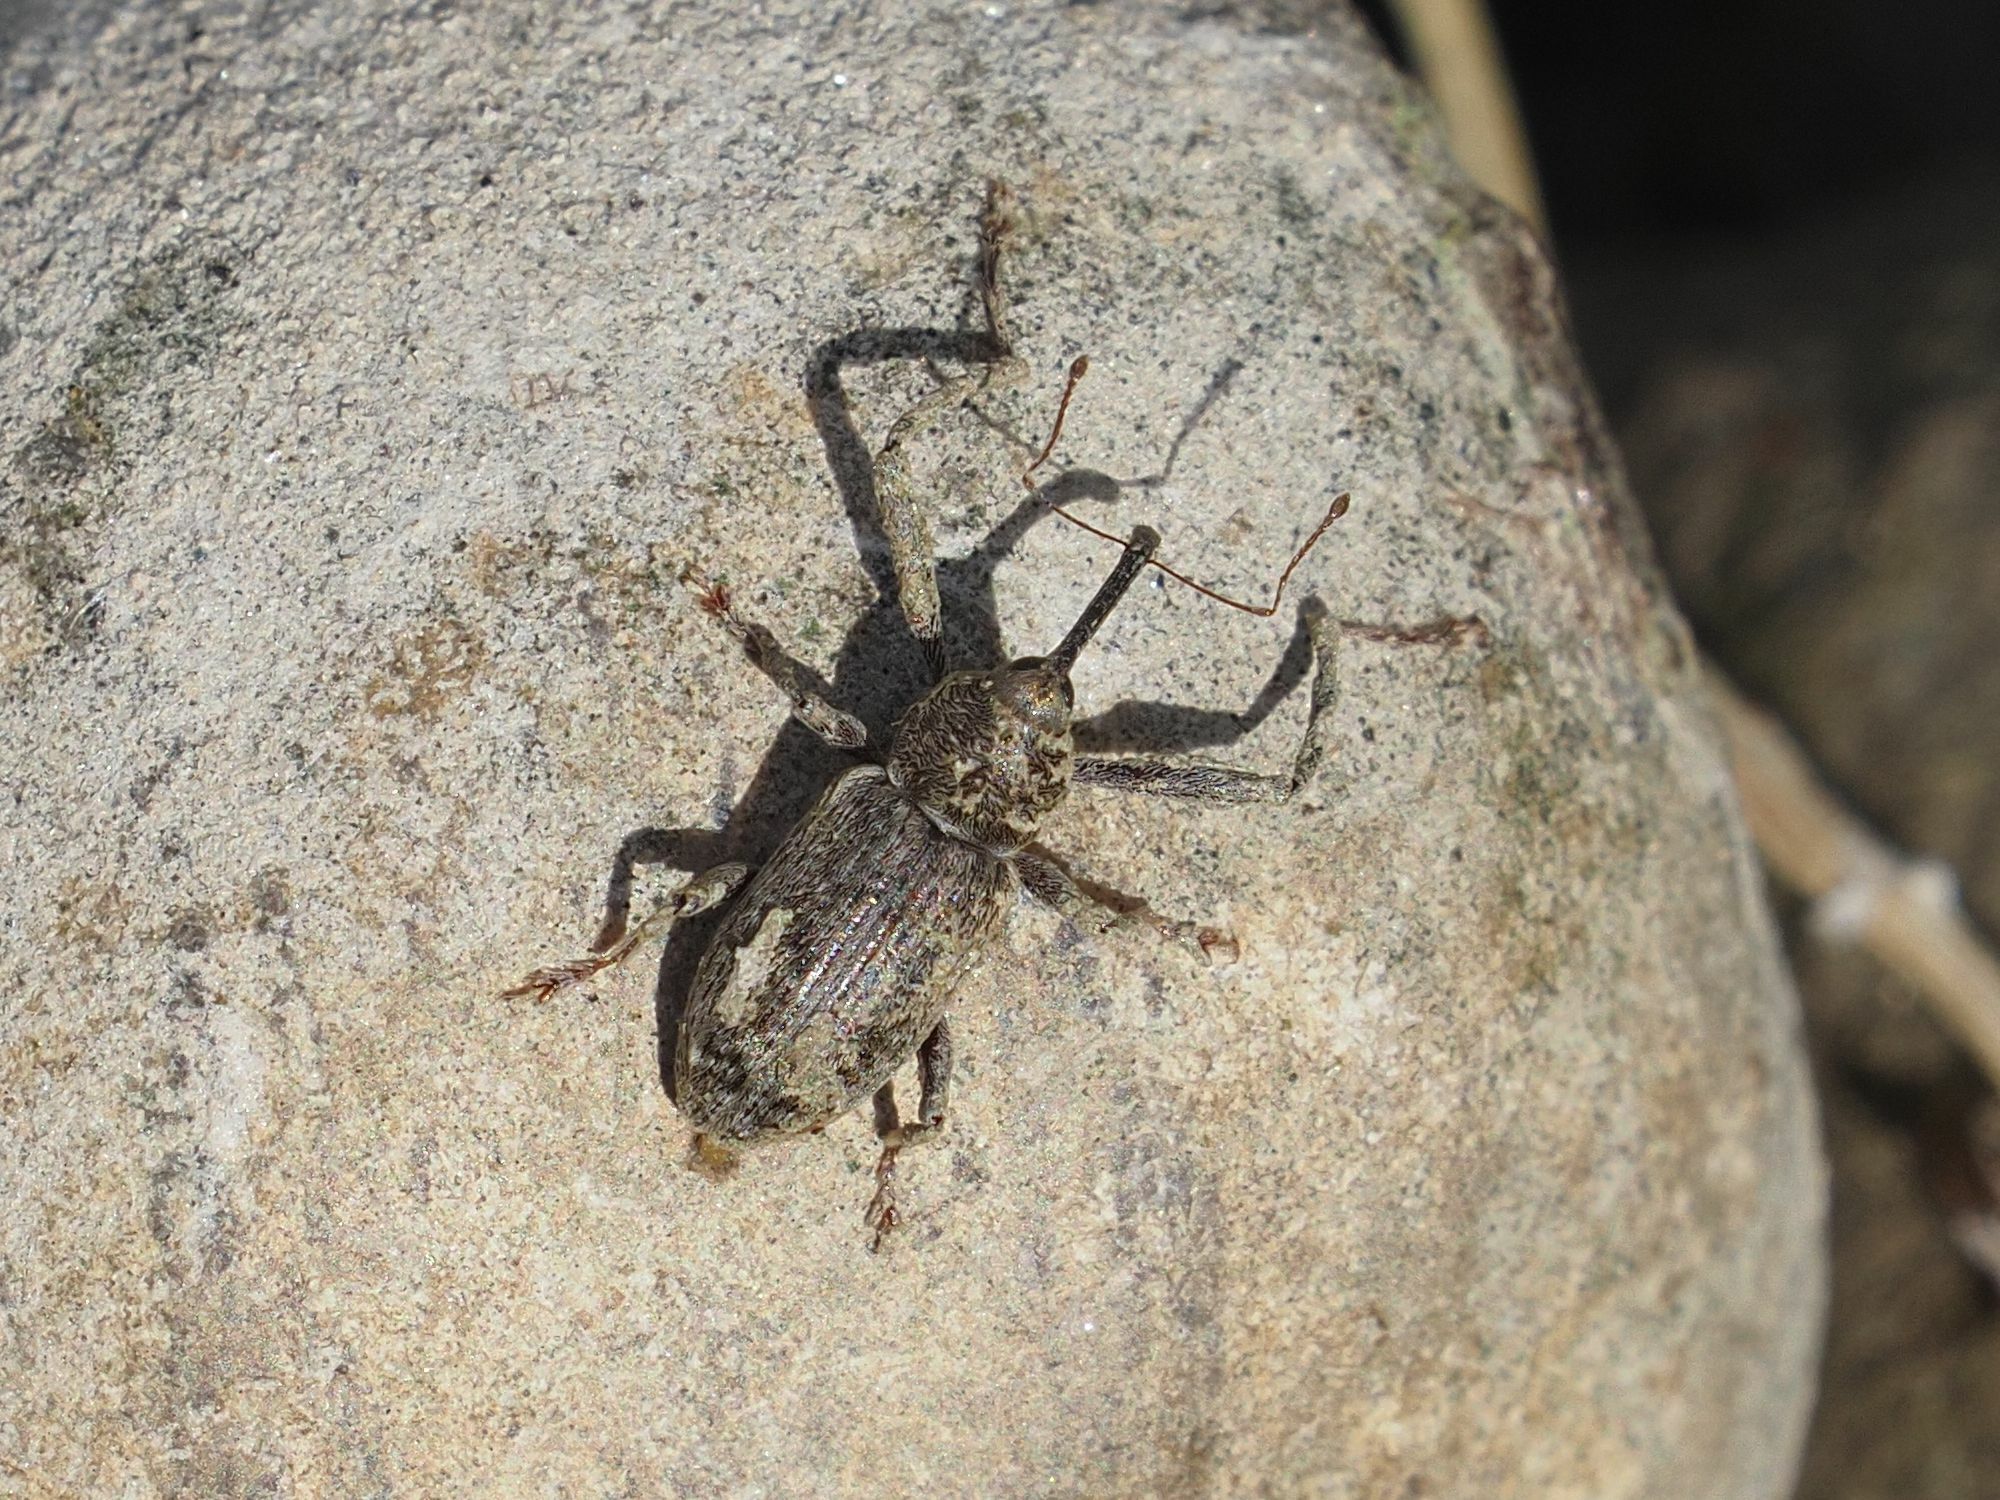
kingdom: Animalia
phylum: Arthropoda
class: Insecta
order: Coleoptera
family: Curculionidae
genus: Dorytomus
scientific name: Dorytomus longimanus
